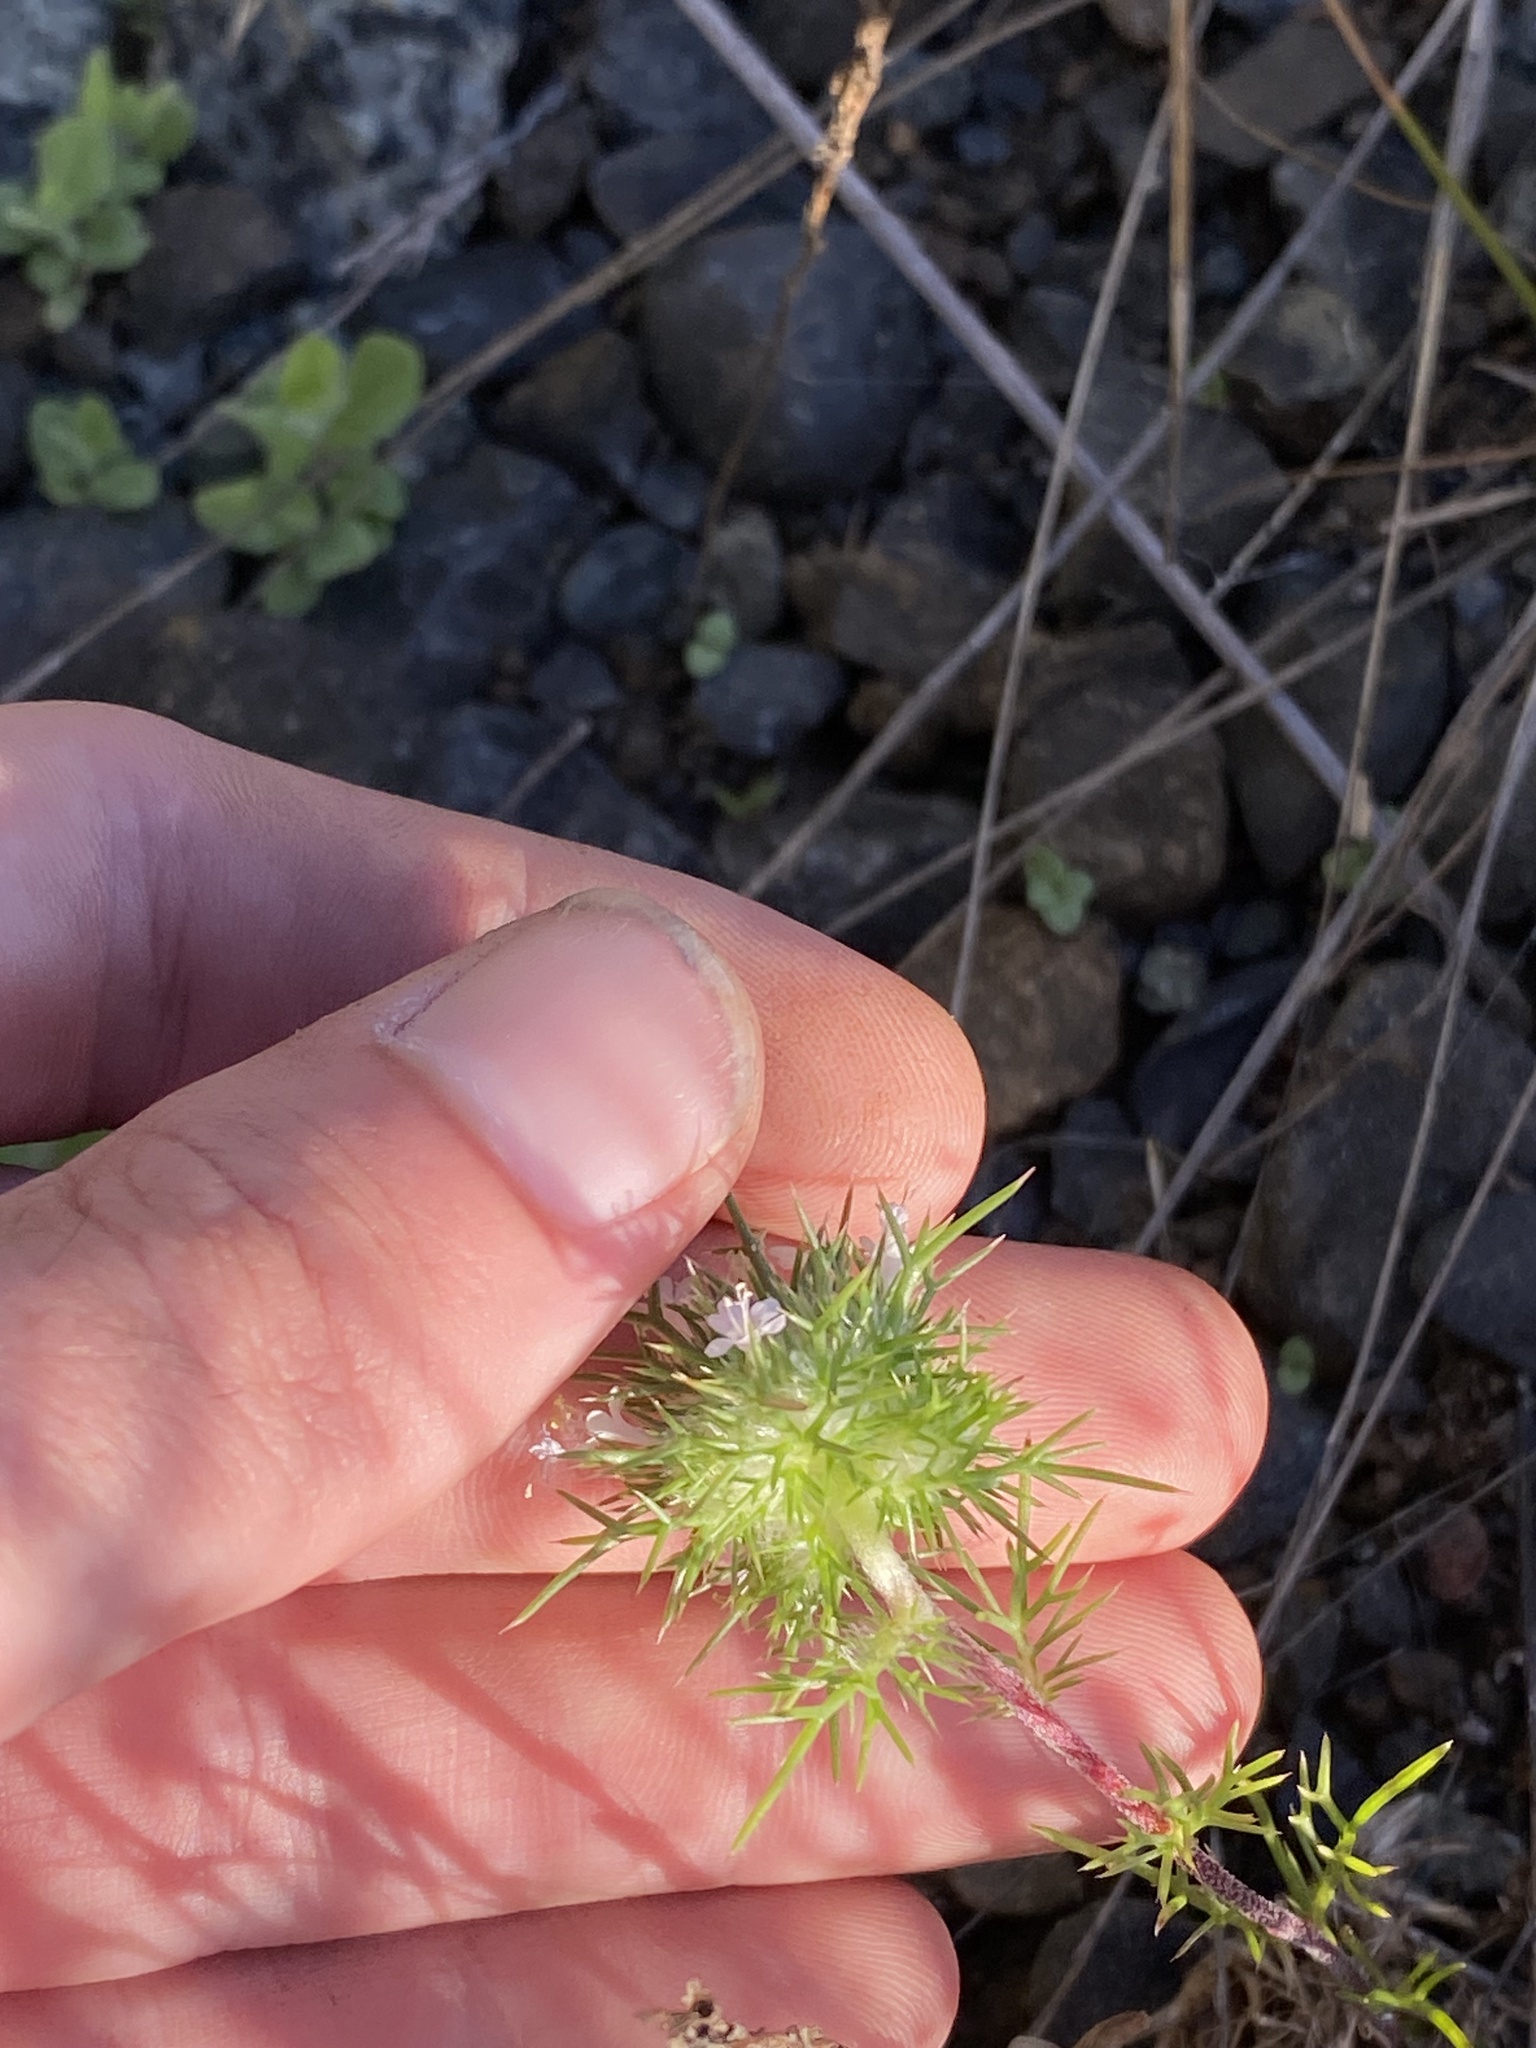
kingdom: Plantae
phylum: Tracheophyta
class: Magnoliopsida
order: Ericales
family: Polemoniaceae
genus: Navarretia
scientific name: Navarretia intertexta
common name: Needle-leaved navarretia
